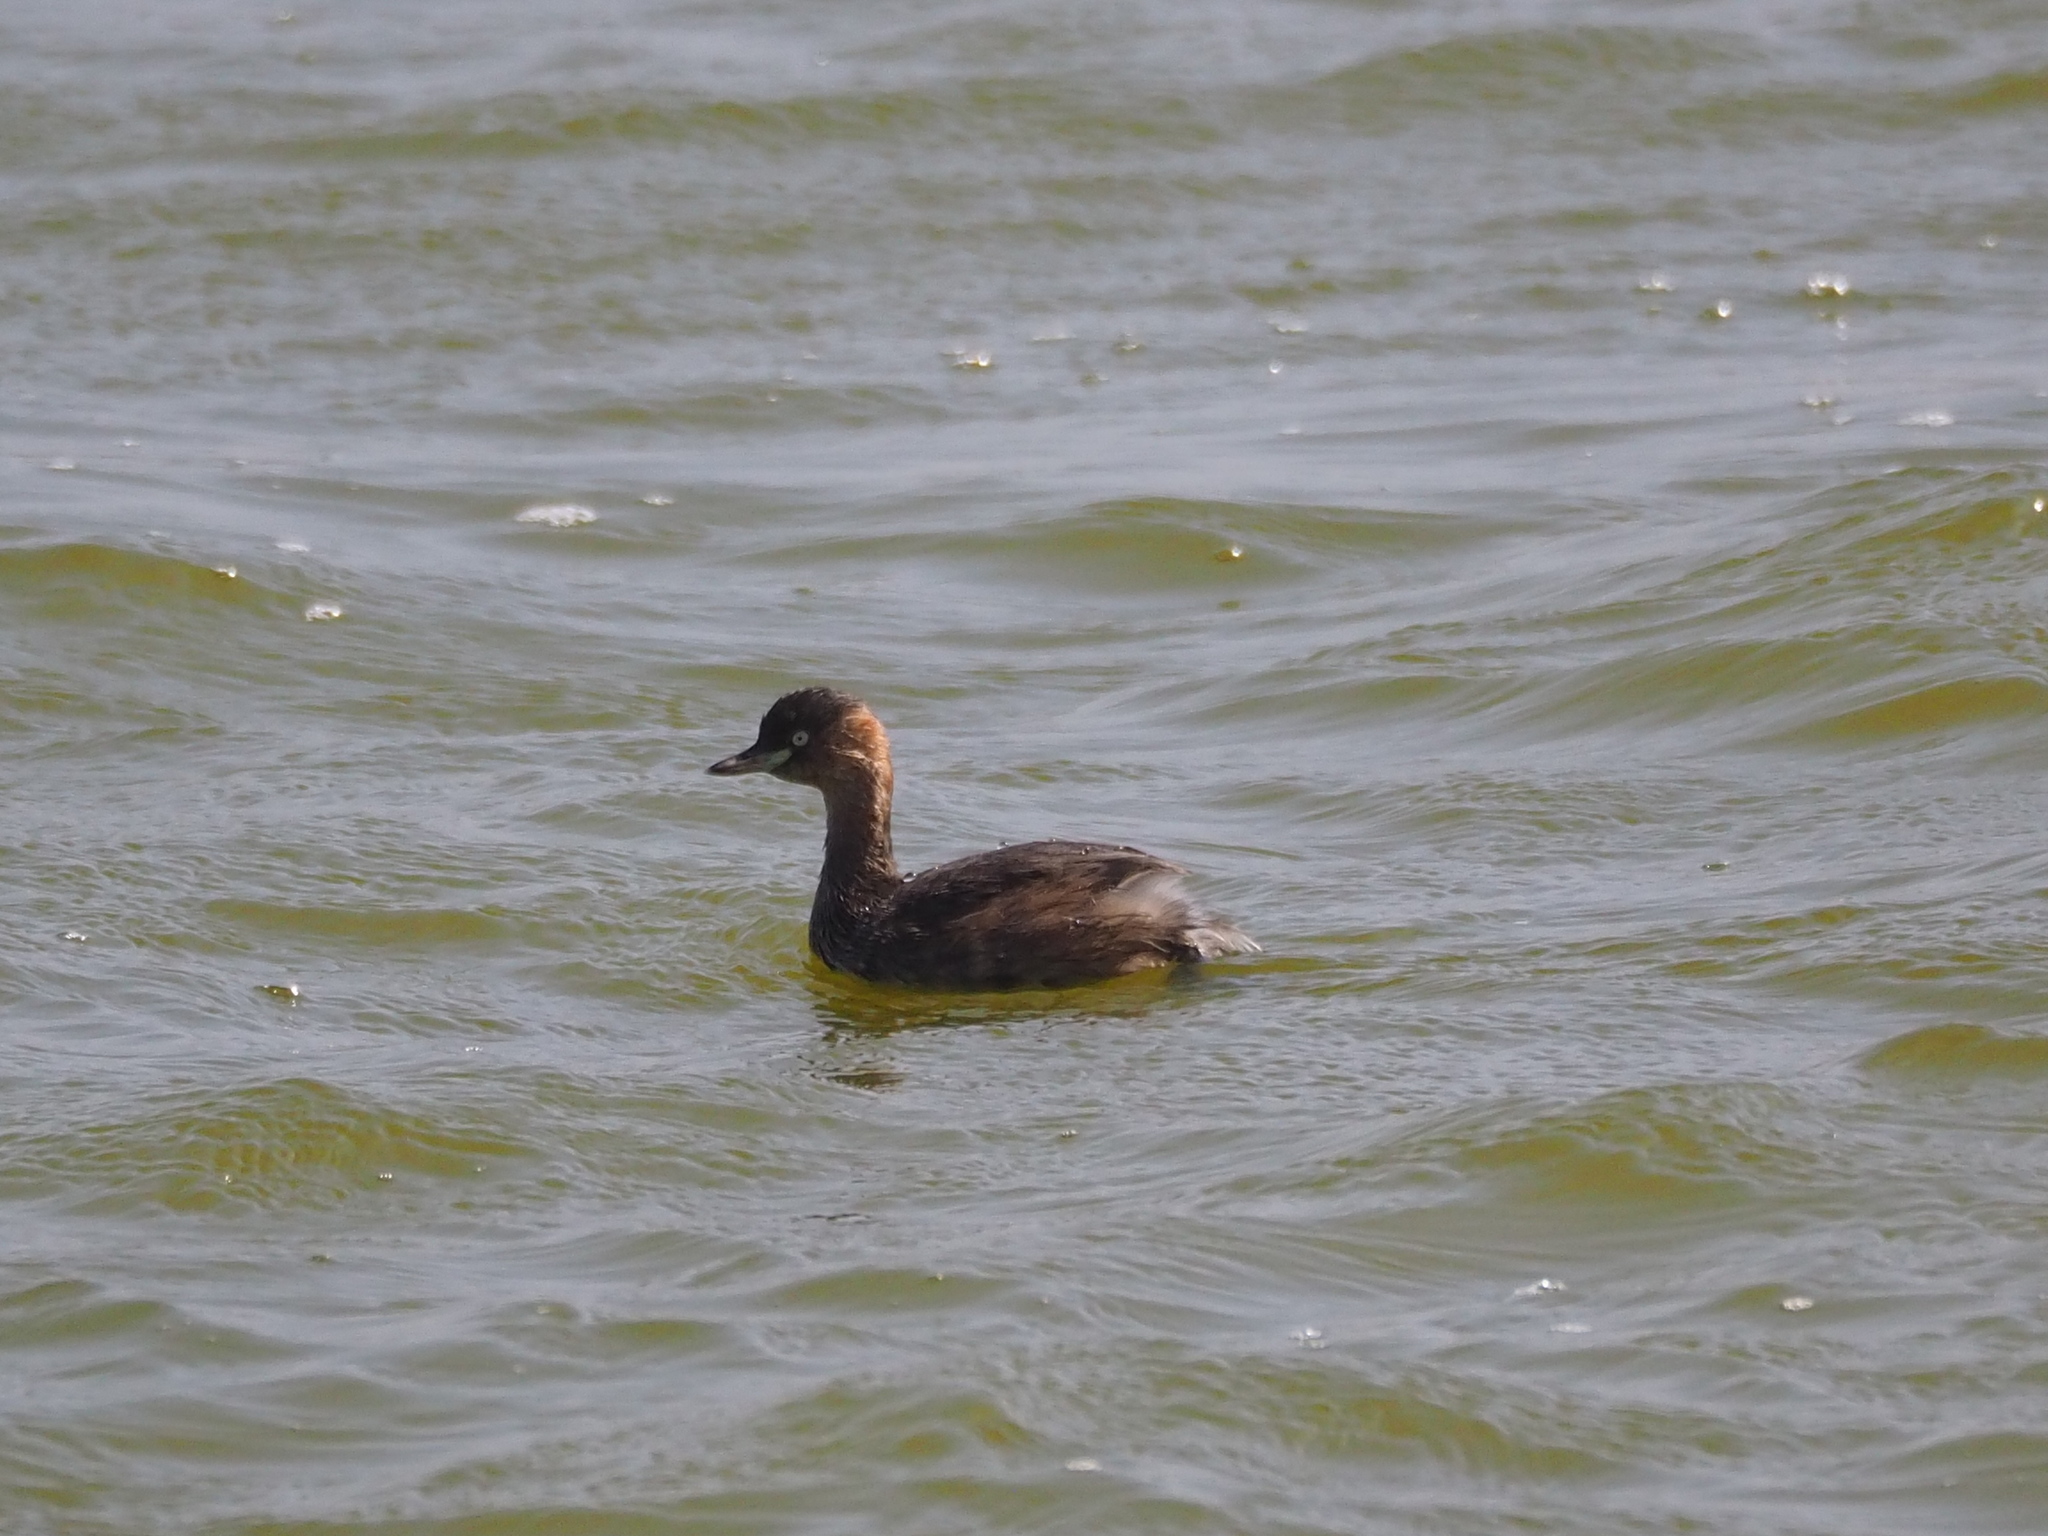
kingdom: Animalia
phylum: Chordata
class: Aves
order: Podicipediformes
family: Podicipedidae
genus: Tachybaptus
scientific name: Tachybaptus ruficollis
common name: Little grebe
